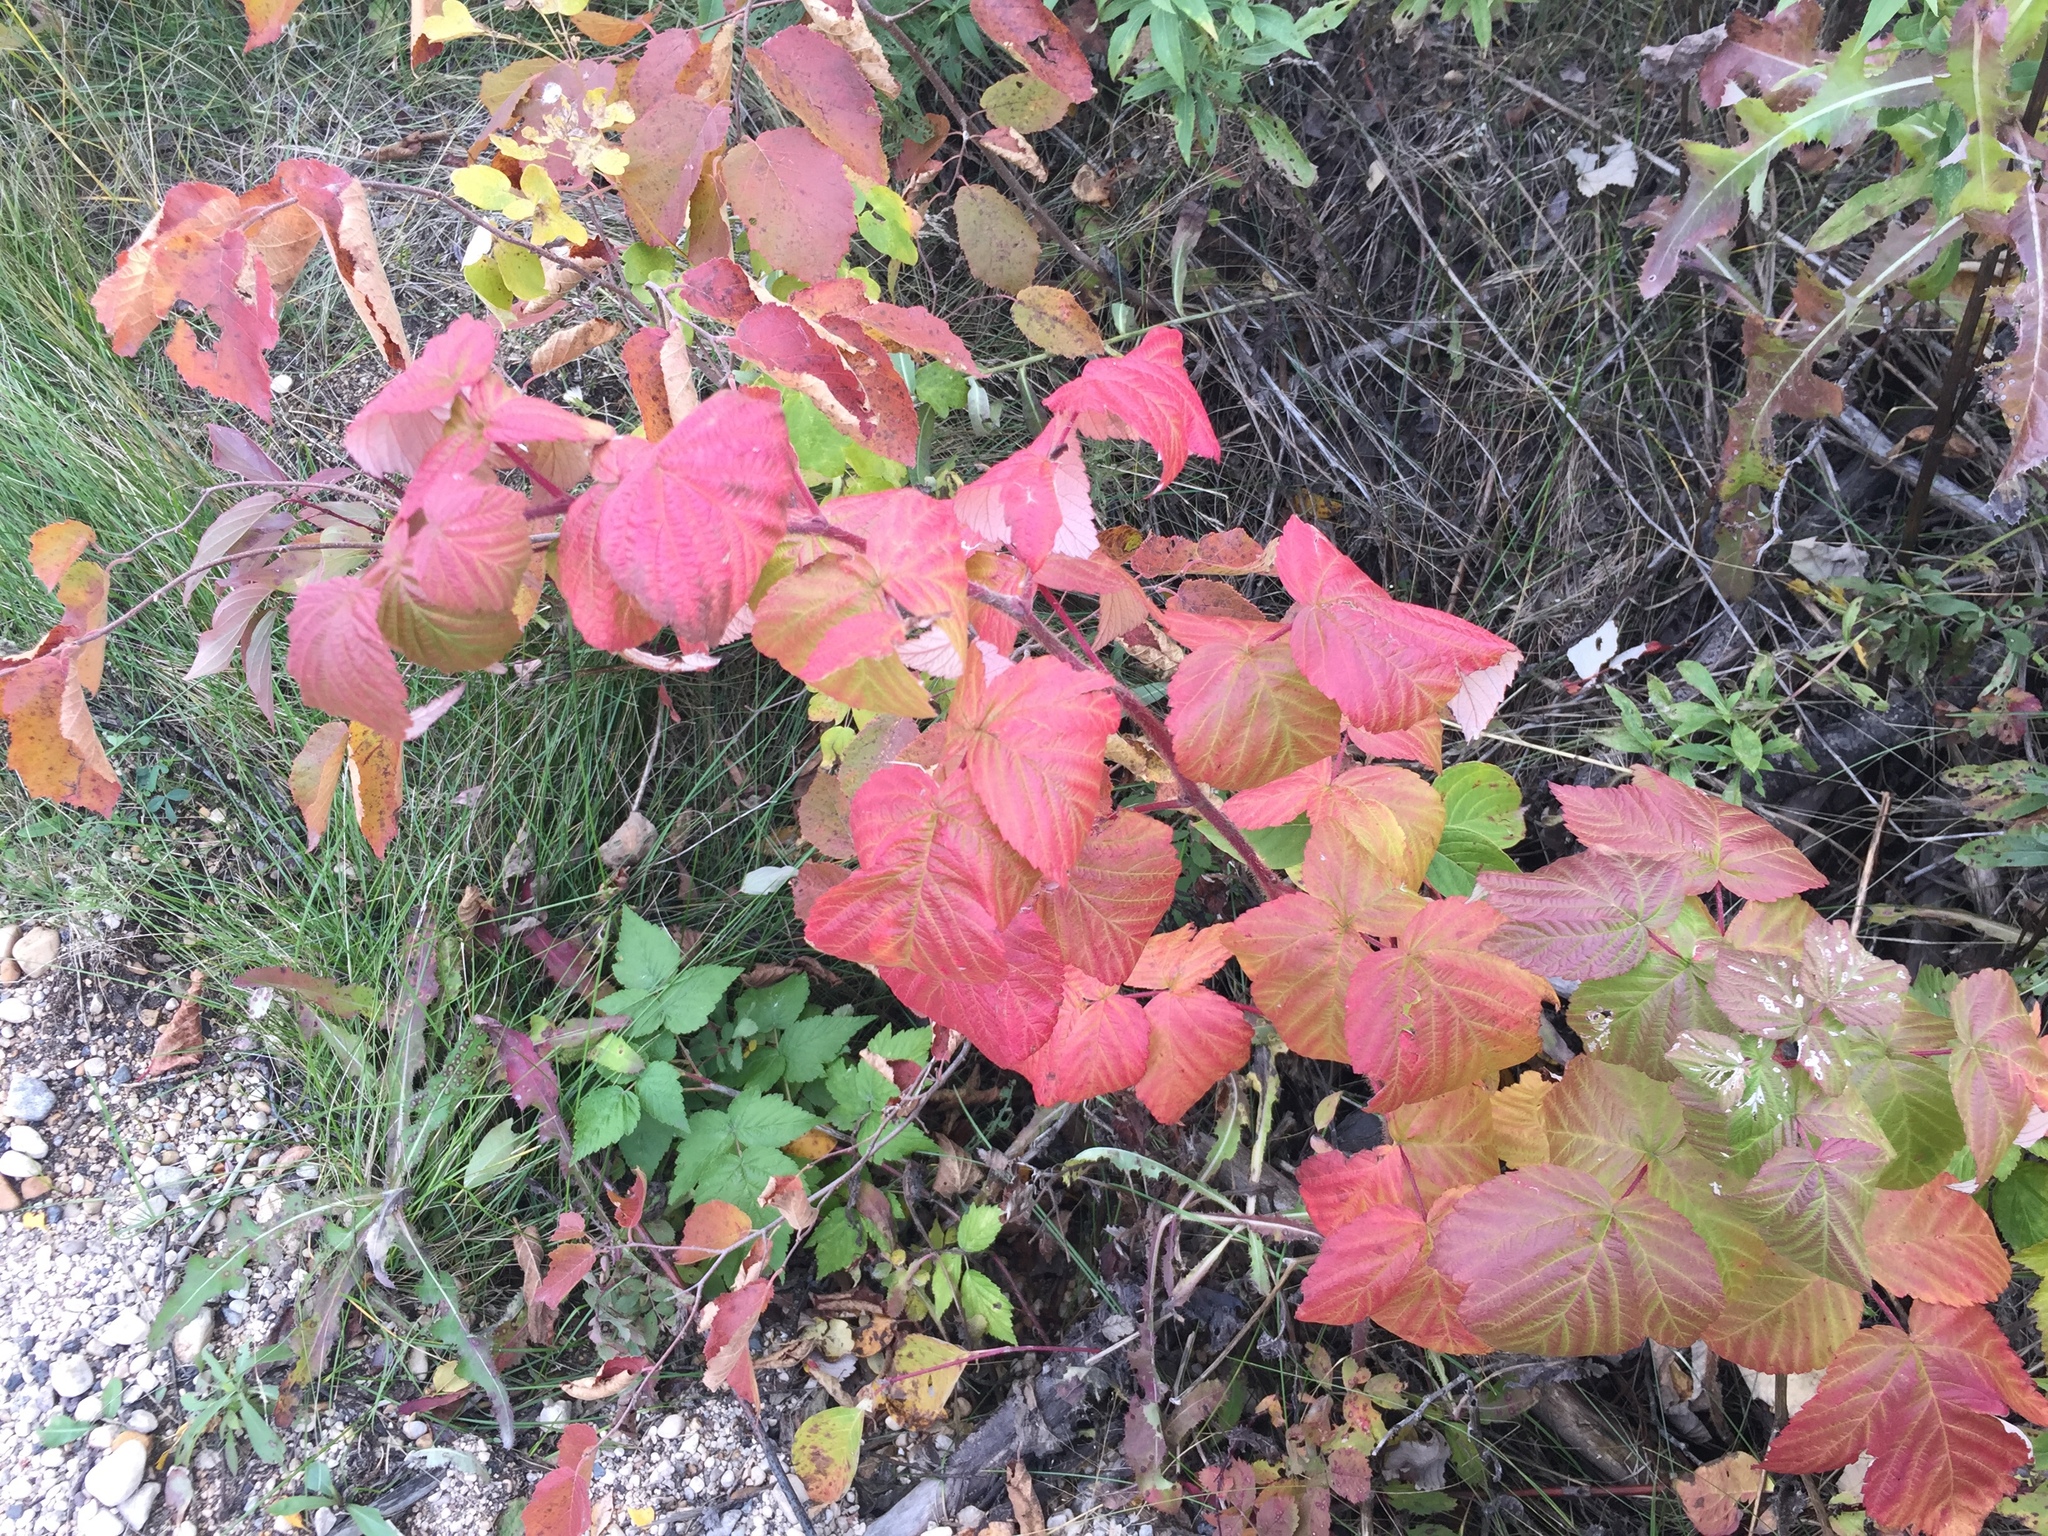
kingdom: Plantae
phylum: Tracheophyta
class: Magnoliopsida
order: Rosales
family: Rosaceae
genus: Rubus
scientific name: Rubus idaeus
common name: Raspberry
